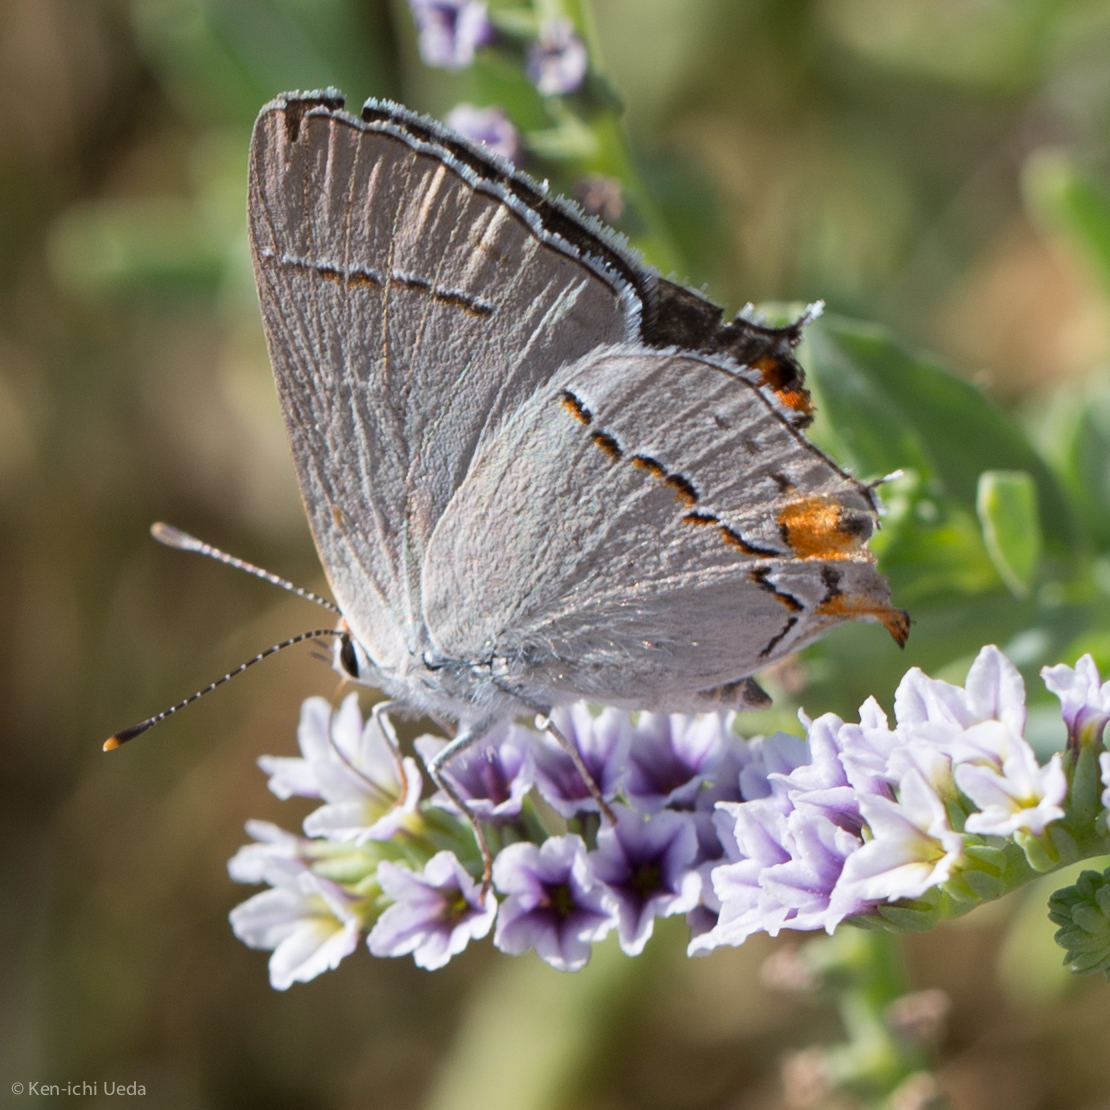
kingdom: Animalia
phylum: Arthropoda
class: Insecta
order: Lepidoptera
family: Lycaenidae
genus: Strymon
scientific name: Strymon melinus
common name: Gray hairstreak
